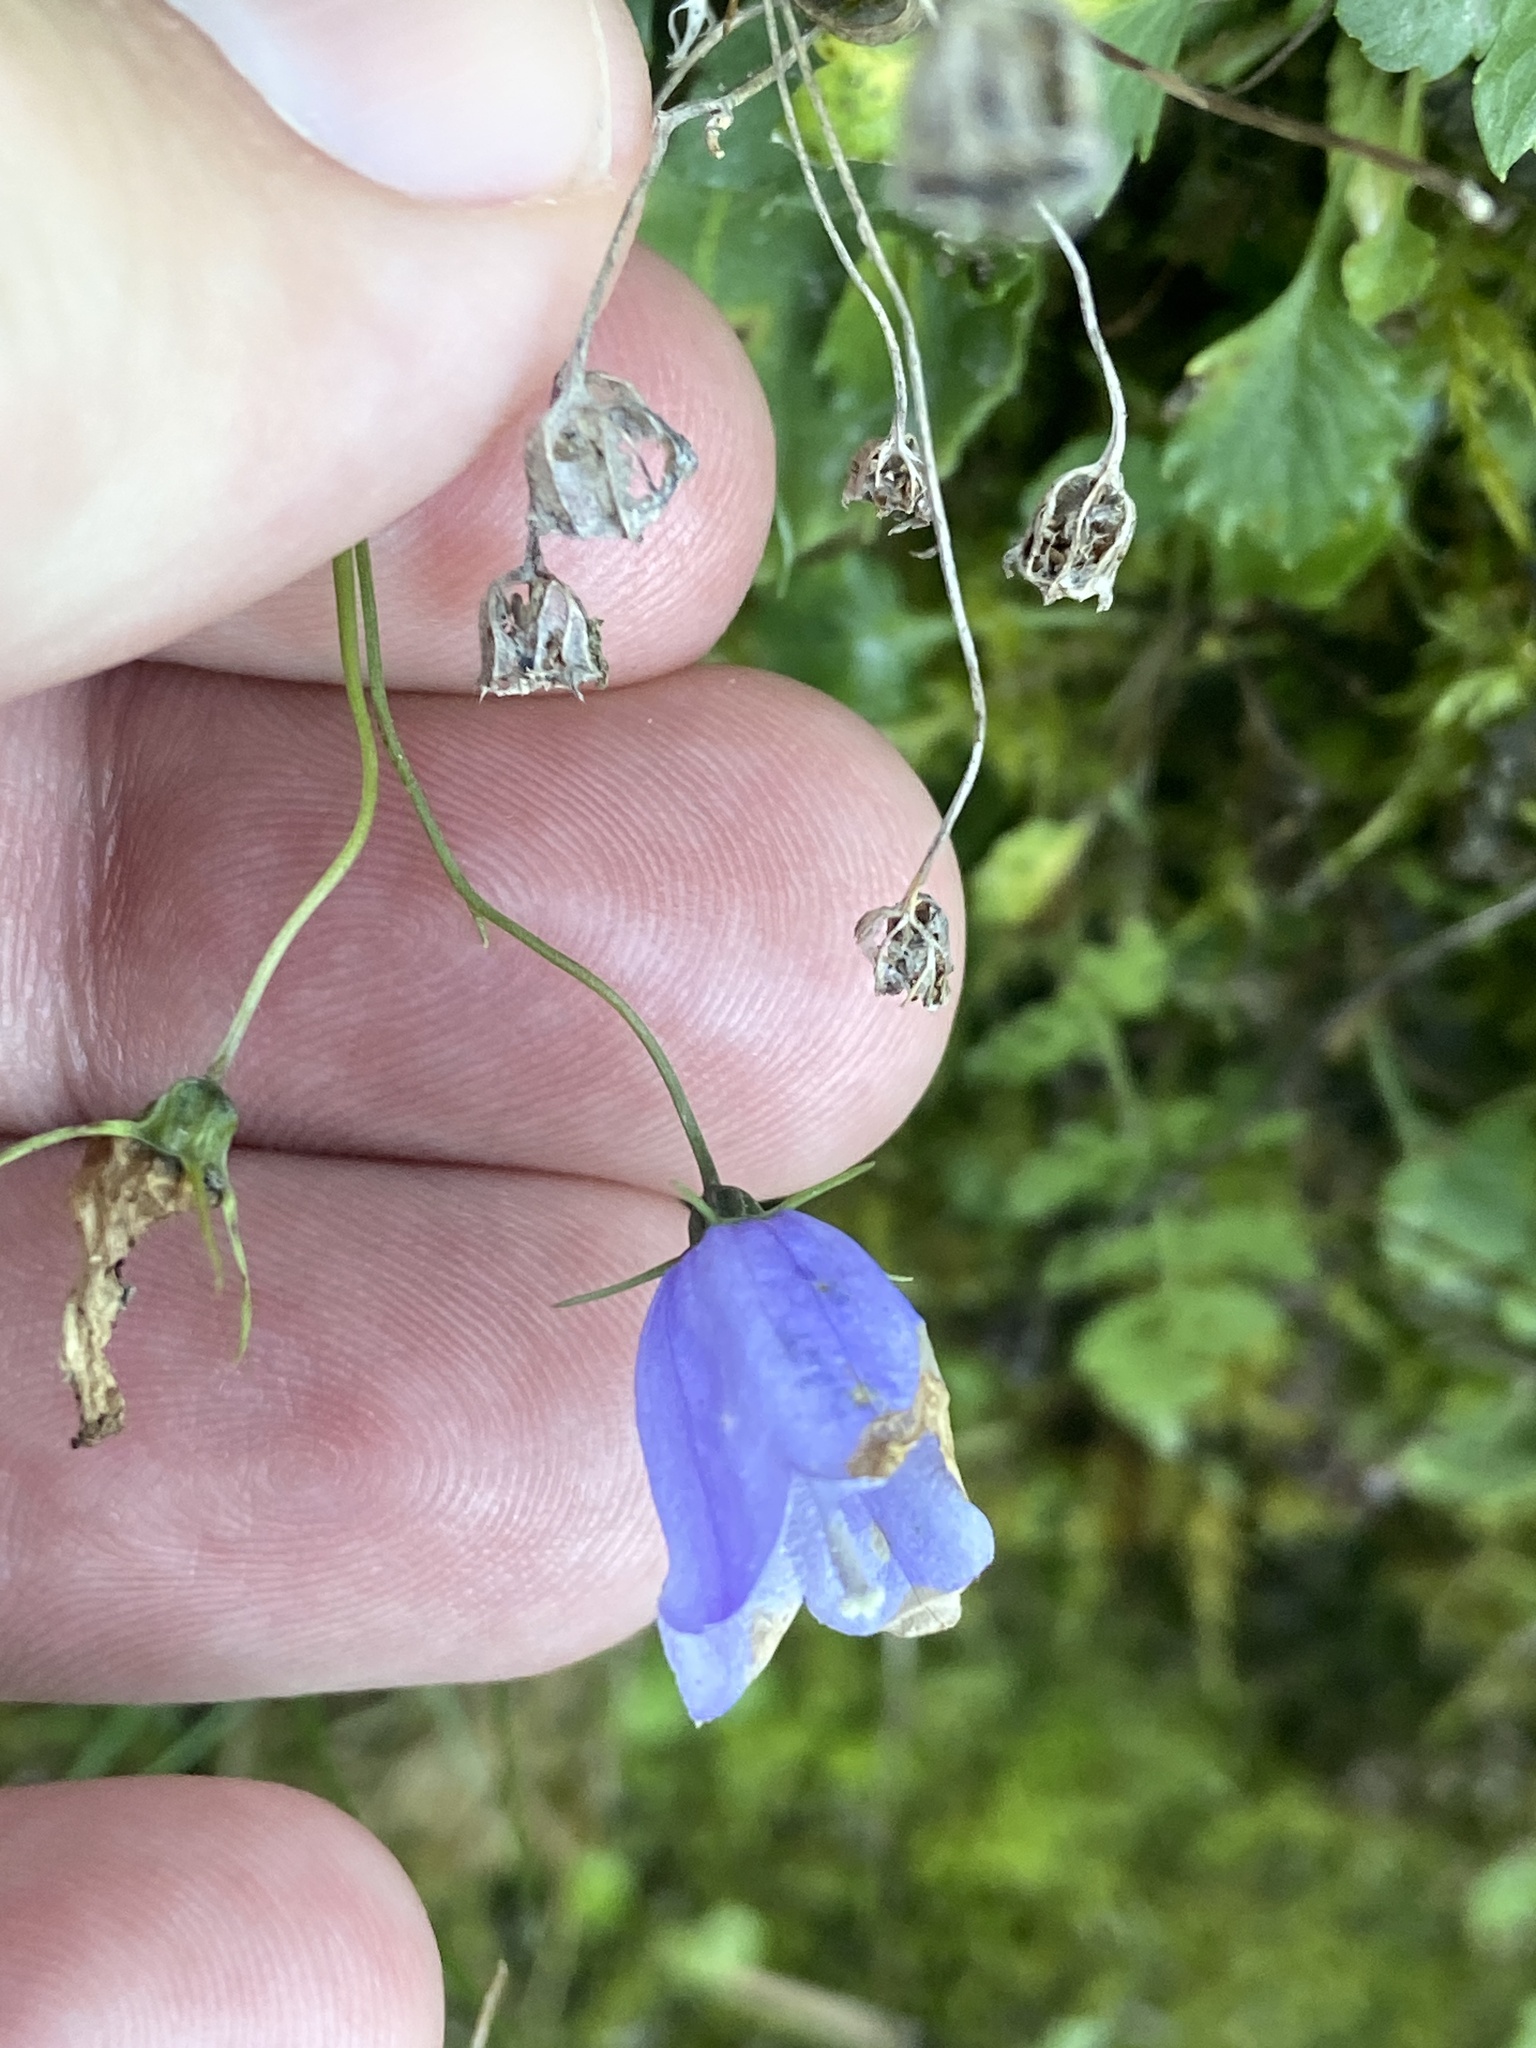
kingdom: Plantae
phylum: Tracheophyta
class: Magnoliopsida
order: Asterales
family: Campanulaceae
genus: Campanula
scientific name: Campanula cochleariifolia
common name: Fairies'-thimbles
